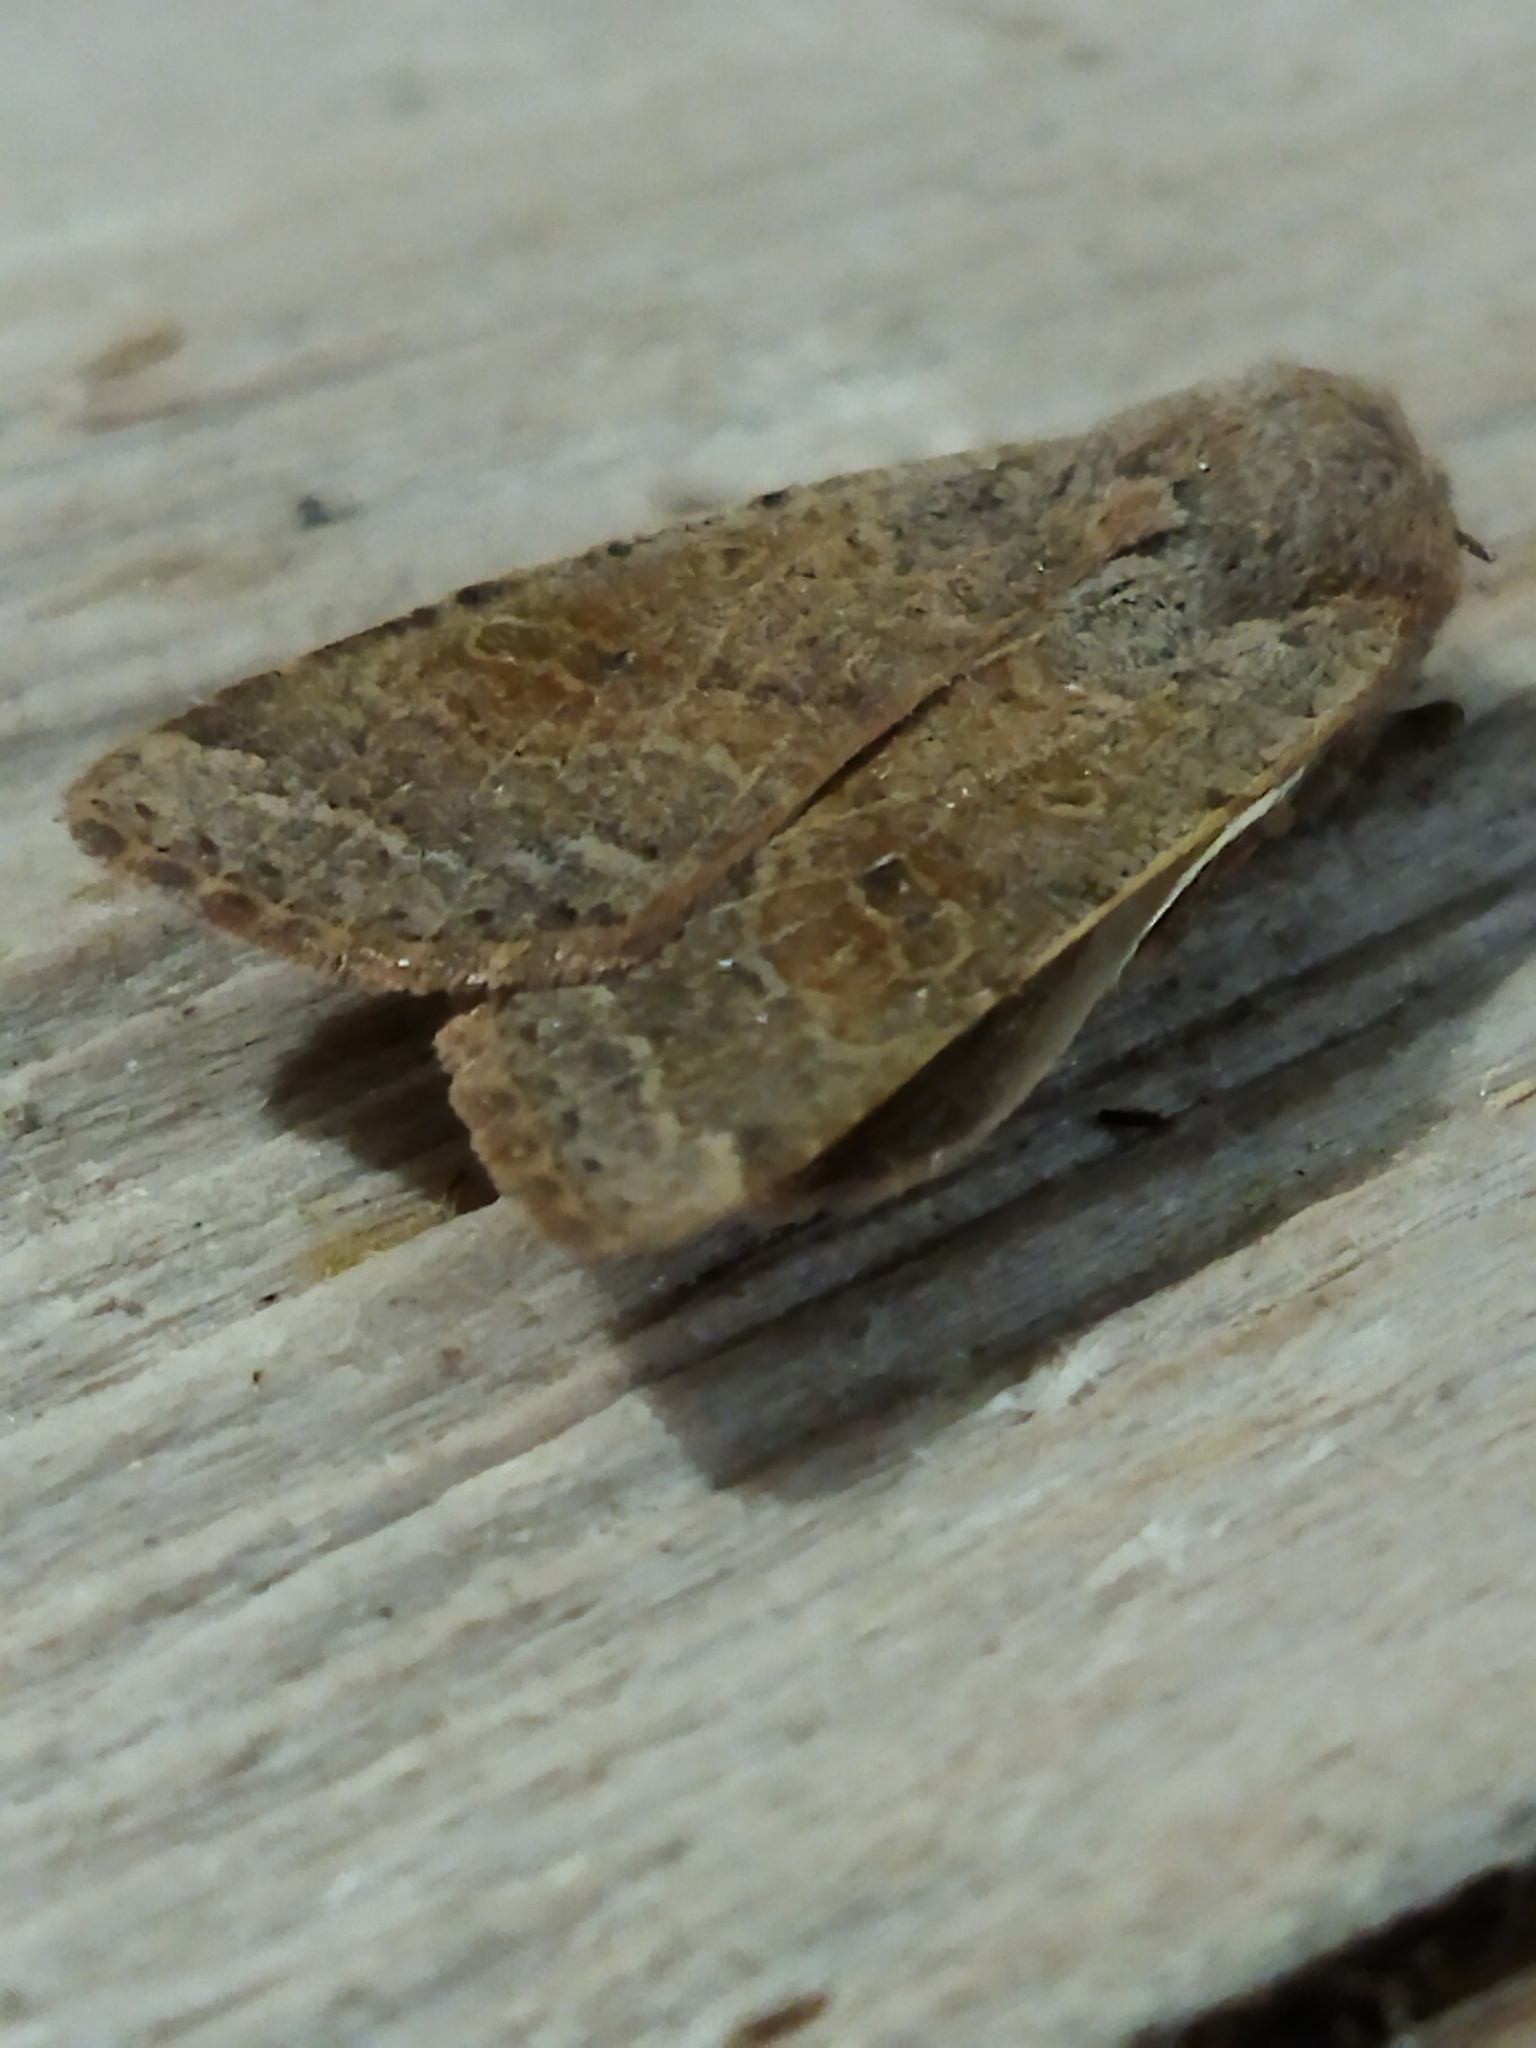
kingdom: Animalia
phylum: Arthropoda
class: Insecta
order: Lepidoptera
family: Noctuidae
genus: Agrochola
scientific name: Agrochola lychnidis
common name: Beaded chestnut
